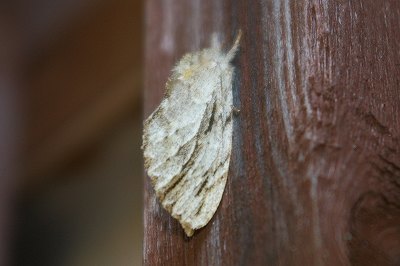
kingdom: Animalia
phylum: Arthropoda
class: Insecta
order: Lepidoptera
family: Notodontidae
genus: Ptilodon
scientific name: Ptilodon grisea
